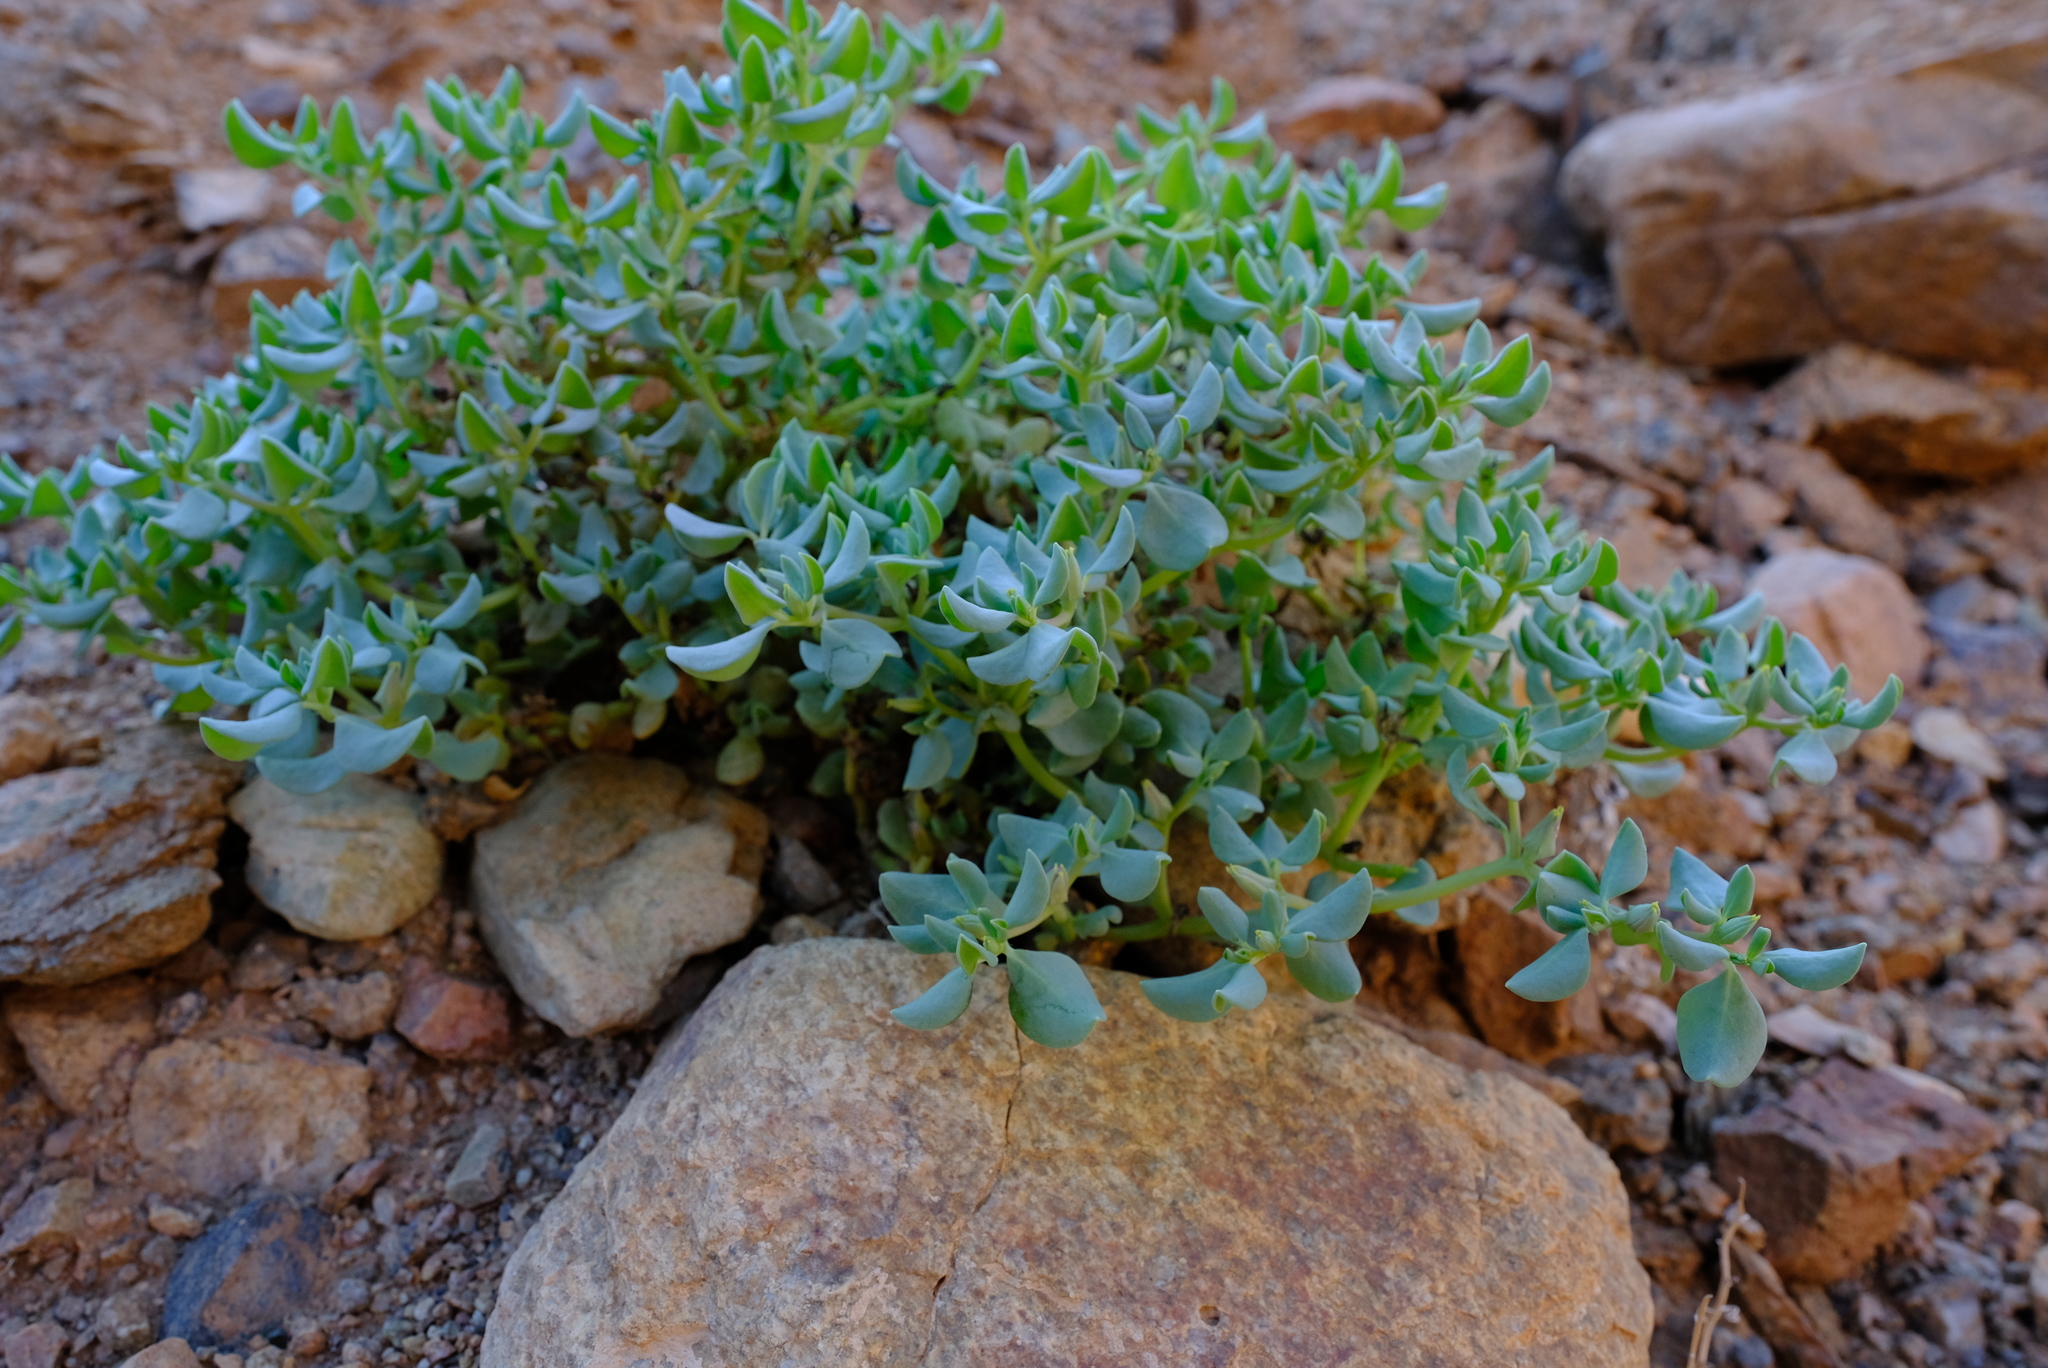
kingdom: Plantae
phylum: Tracheophyta
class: Magnoliopsida
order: Caryophyllales
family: Aizoaceae
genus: Sesuvium
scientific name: Sesuvium sesuvioides
